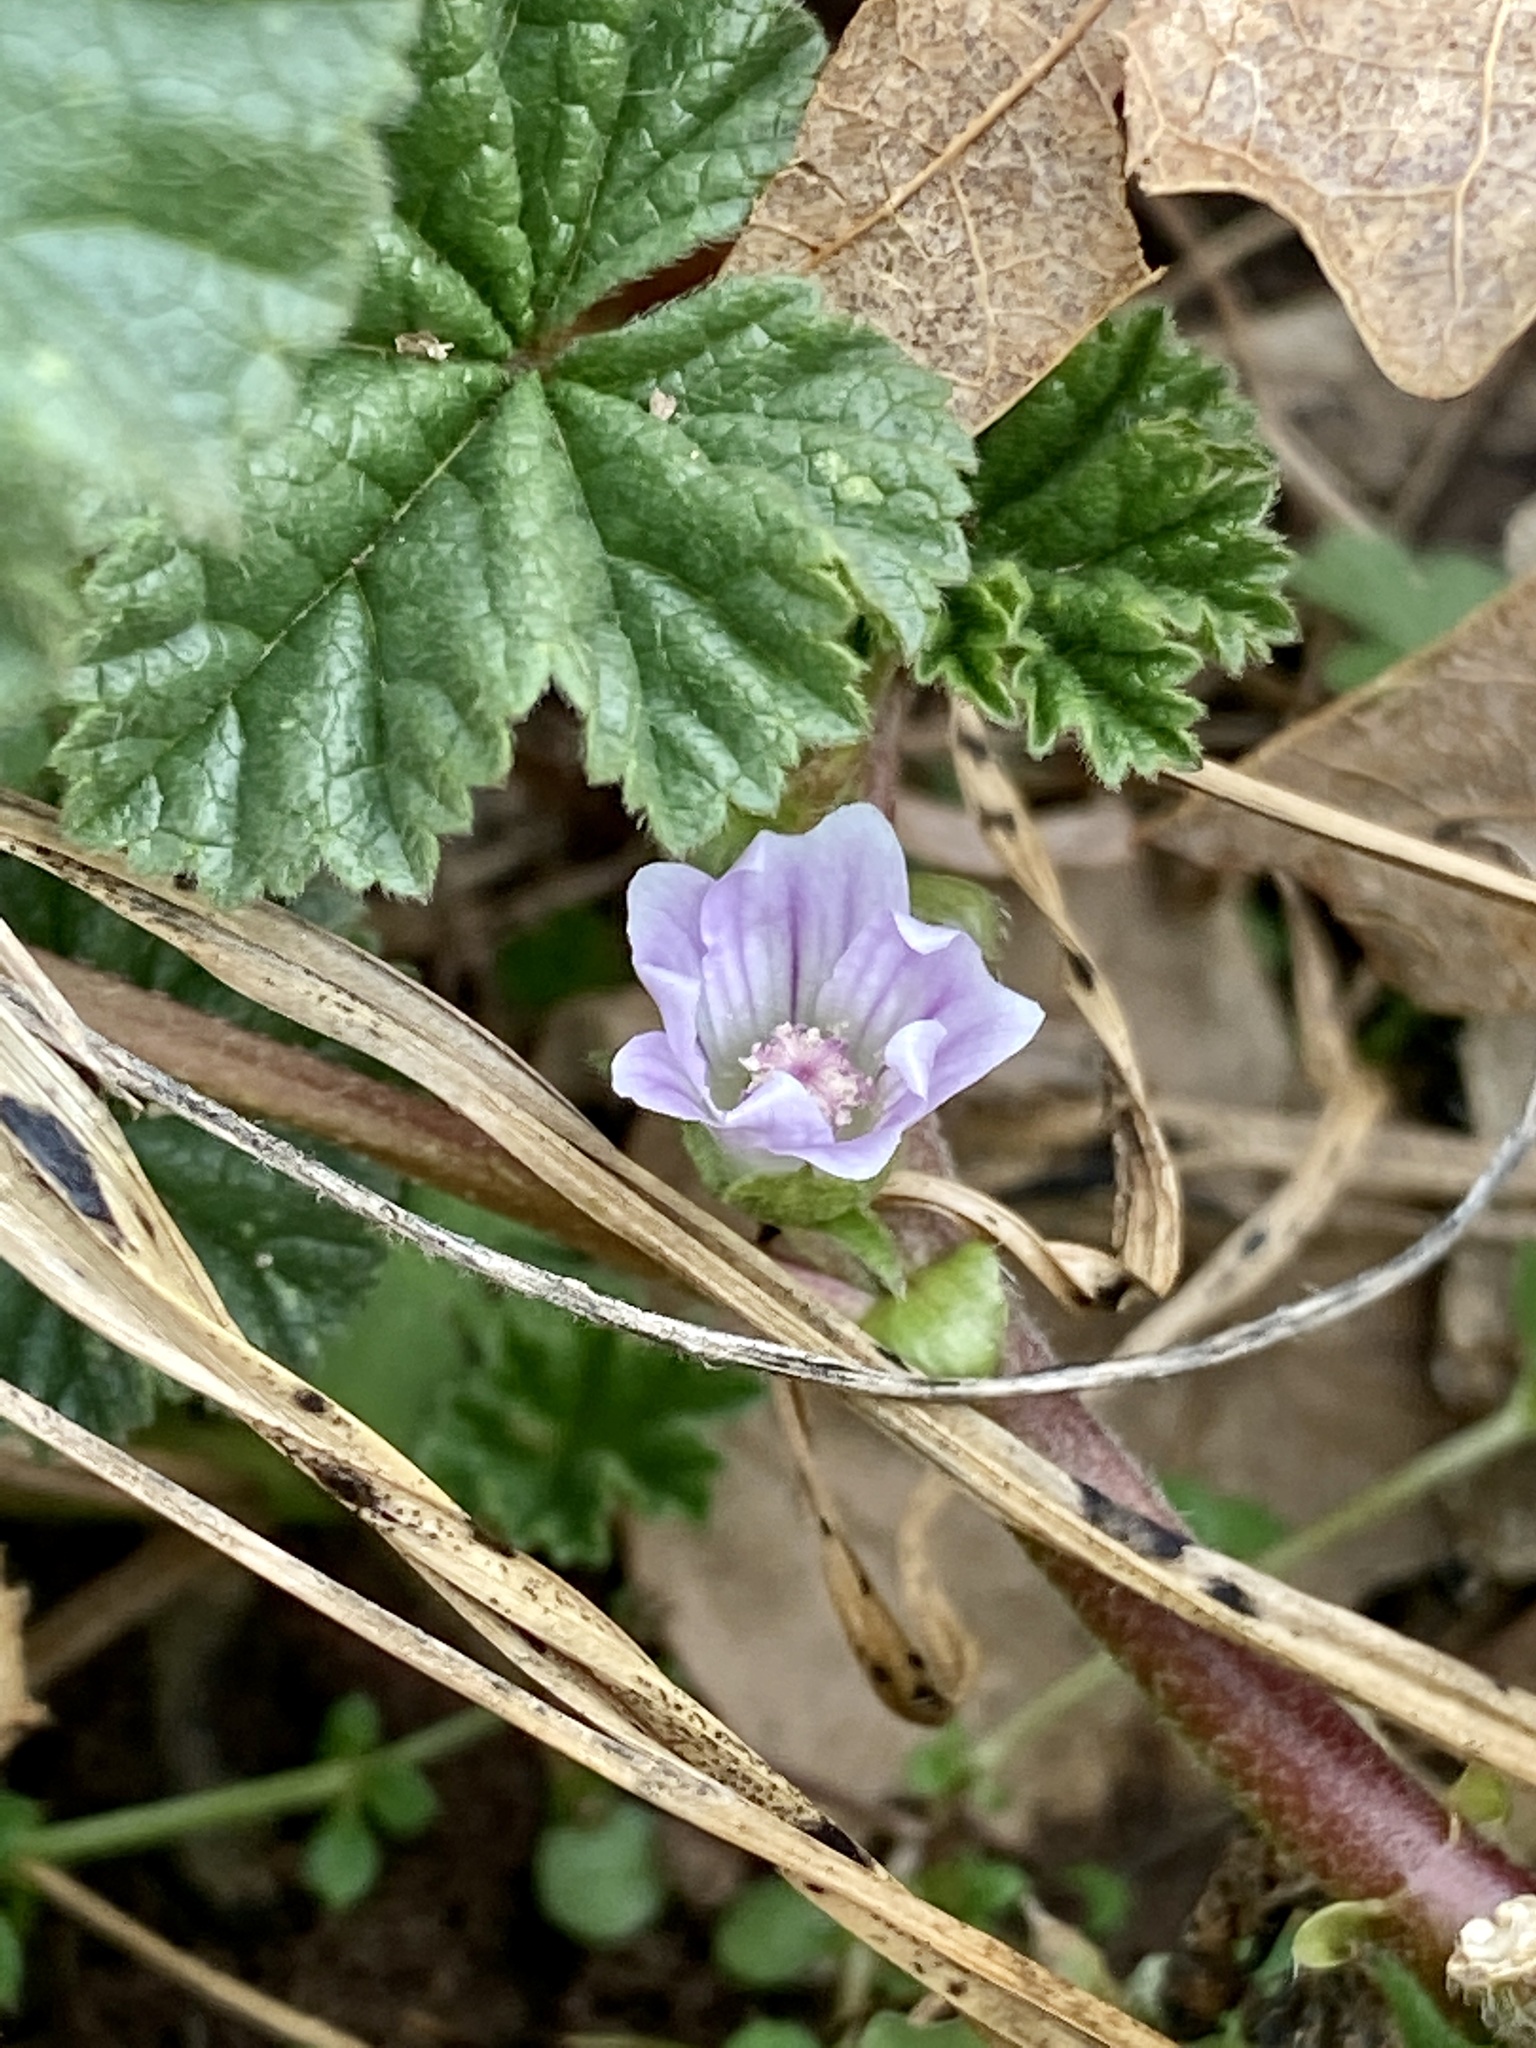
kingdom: Plantae
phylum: Tracheophyta
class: Magnoliopsida
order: Malvales
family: Malvaceae
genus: Malva
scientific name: Malva neglecta
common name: Common mallow
